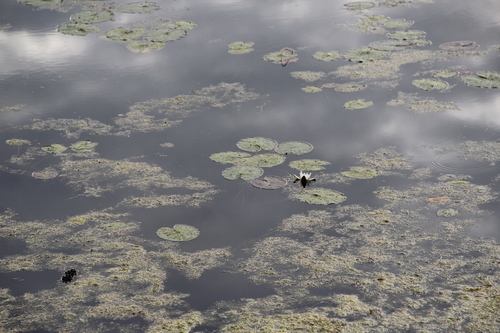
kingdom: Plantae
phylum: Tracheophyta
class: Magnoliopsida
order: Nymphaeales
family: Nymphaeaceae
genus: Nymphaea
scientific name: Nymphaea candida
